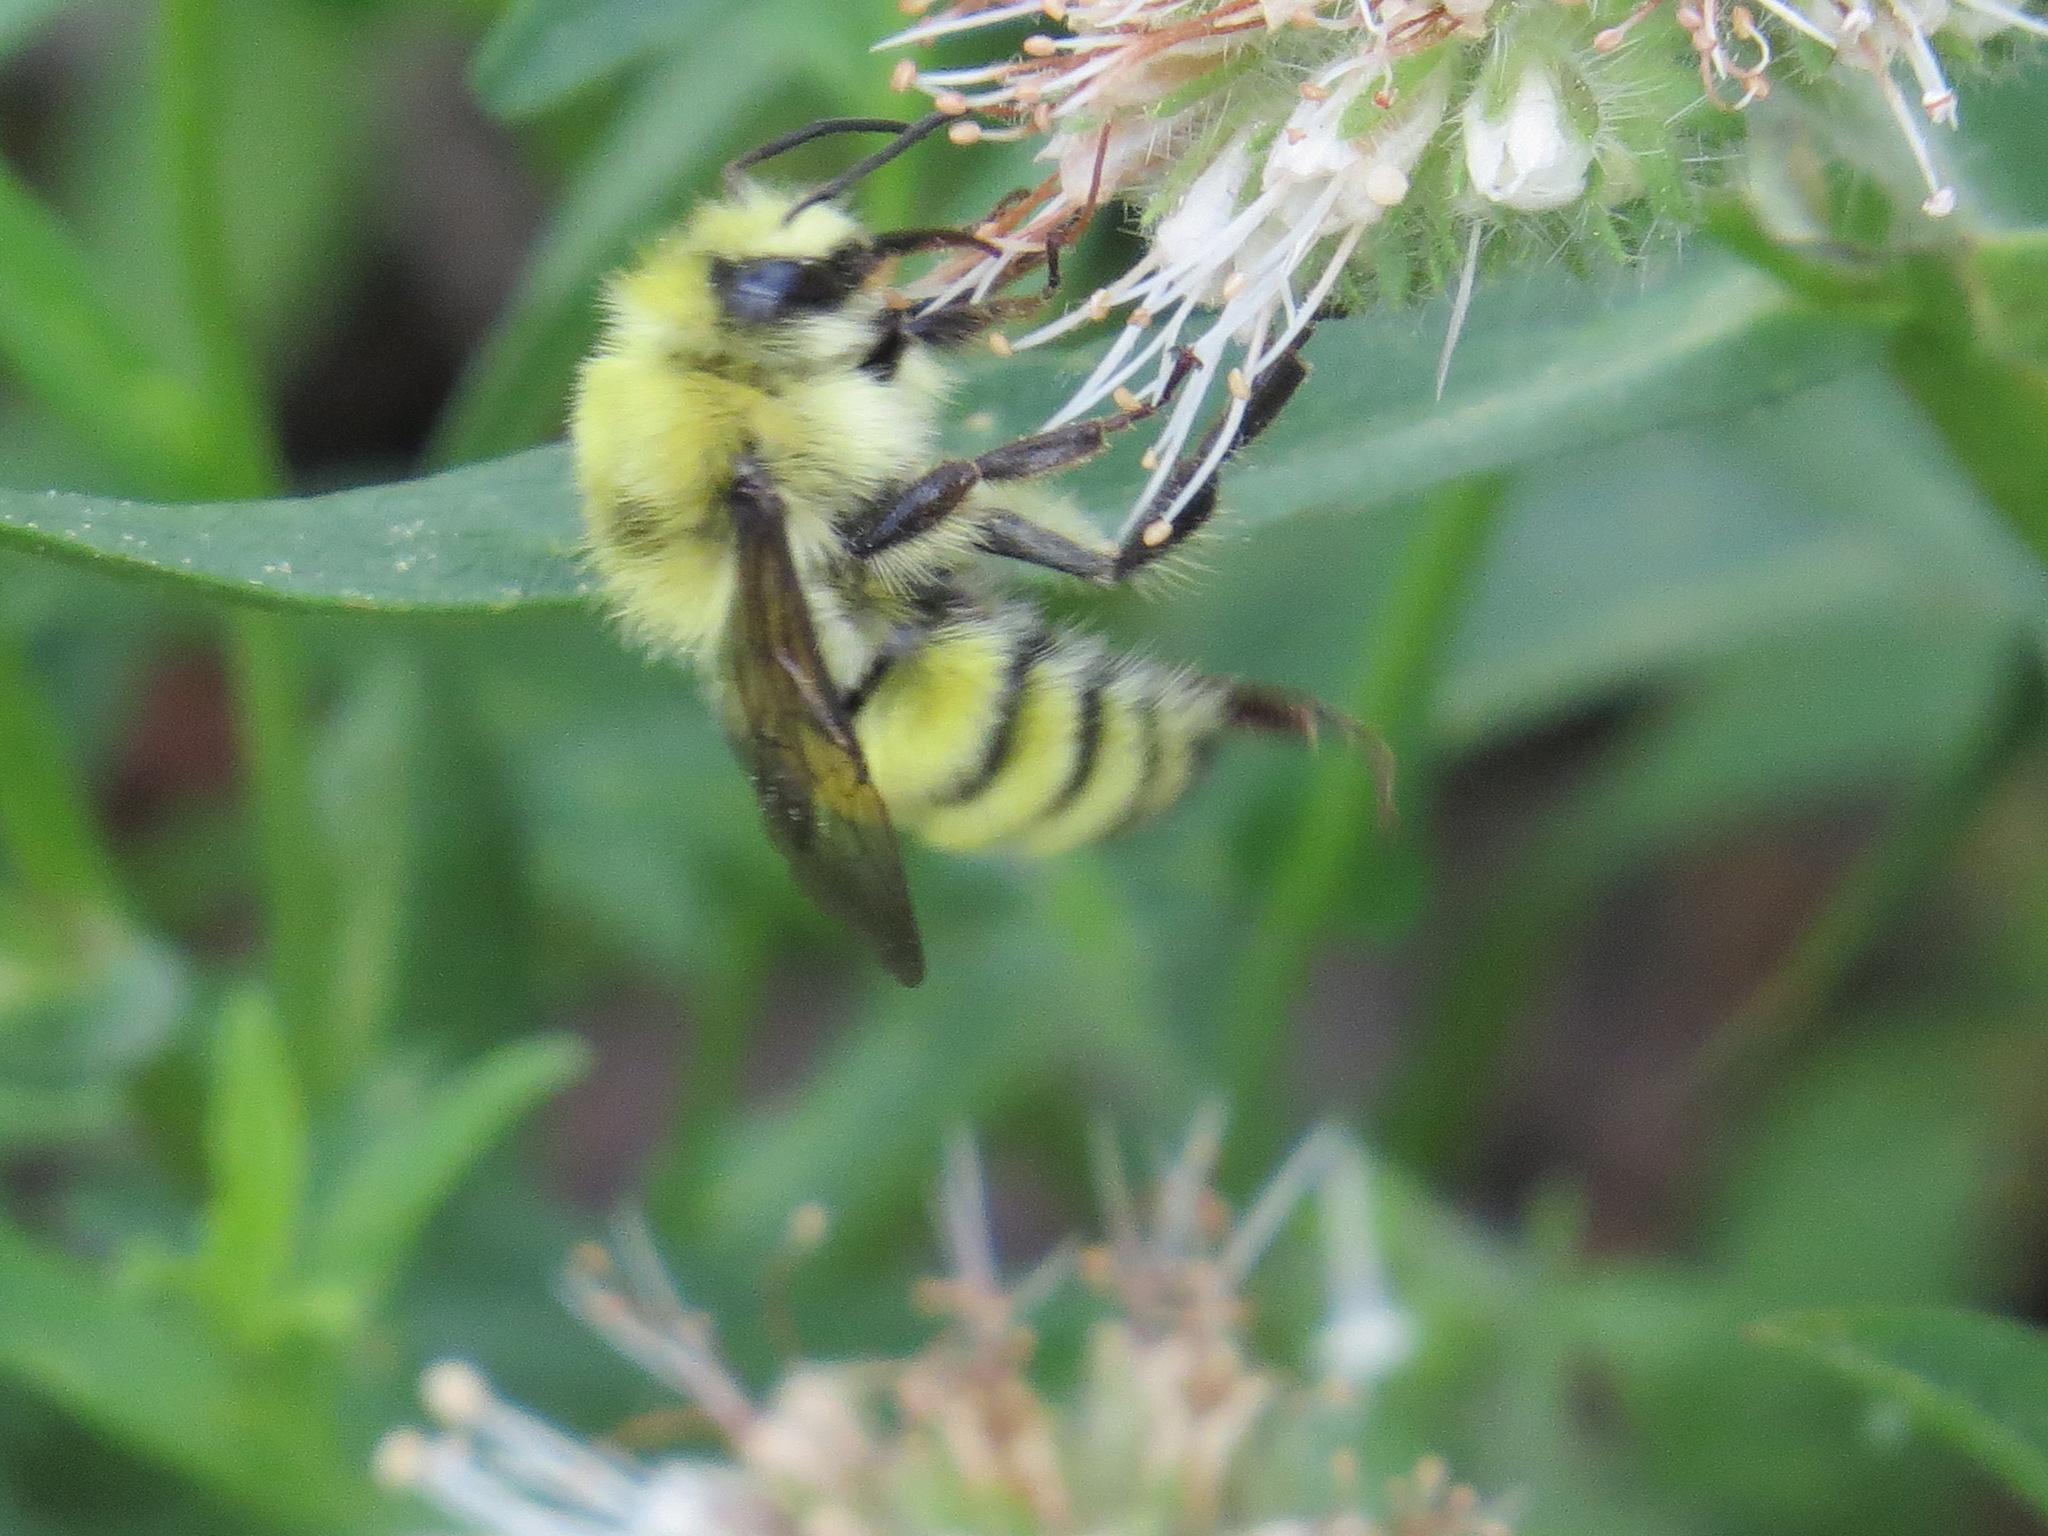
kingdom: Animalia
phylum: Arthropoda
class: Insecta
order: Hymenoptera
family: Apidae
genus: Bombus
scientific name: Bombus vandykei
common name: Van dyke bumble bee
